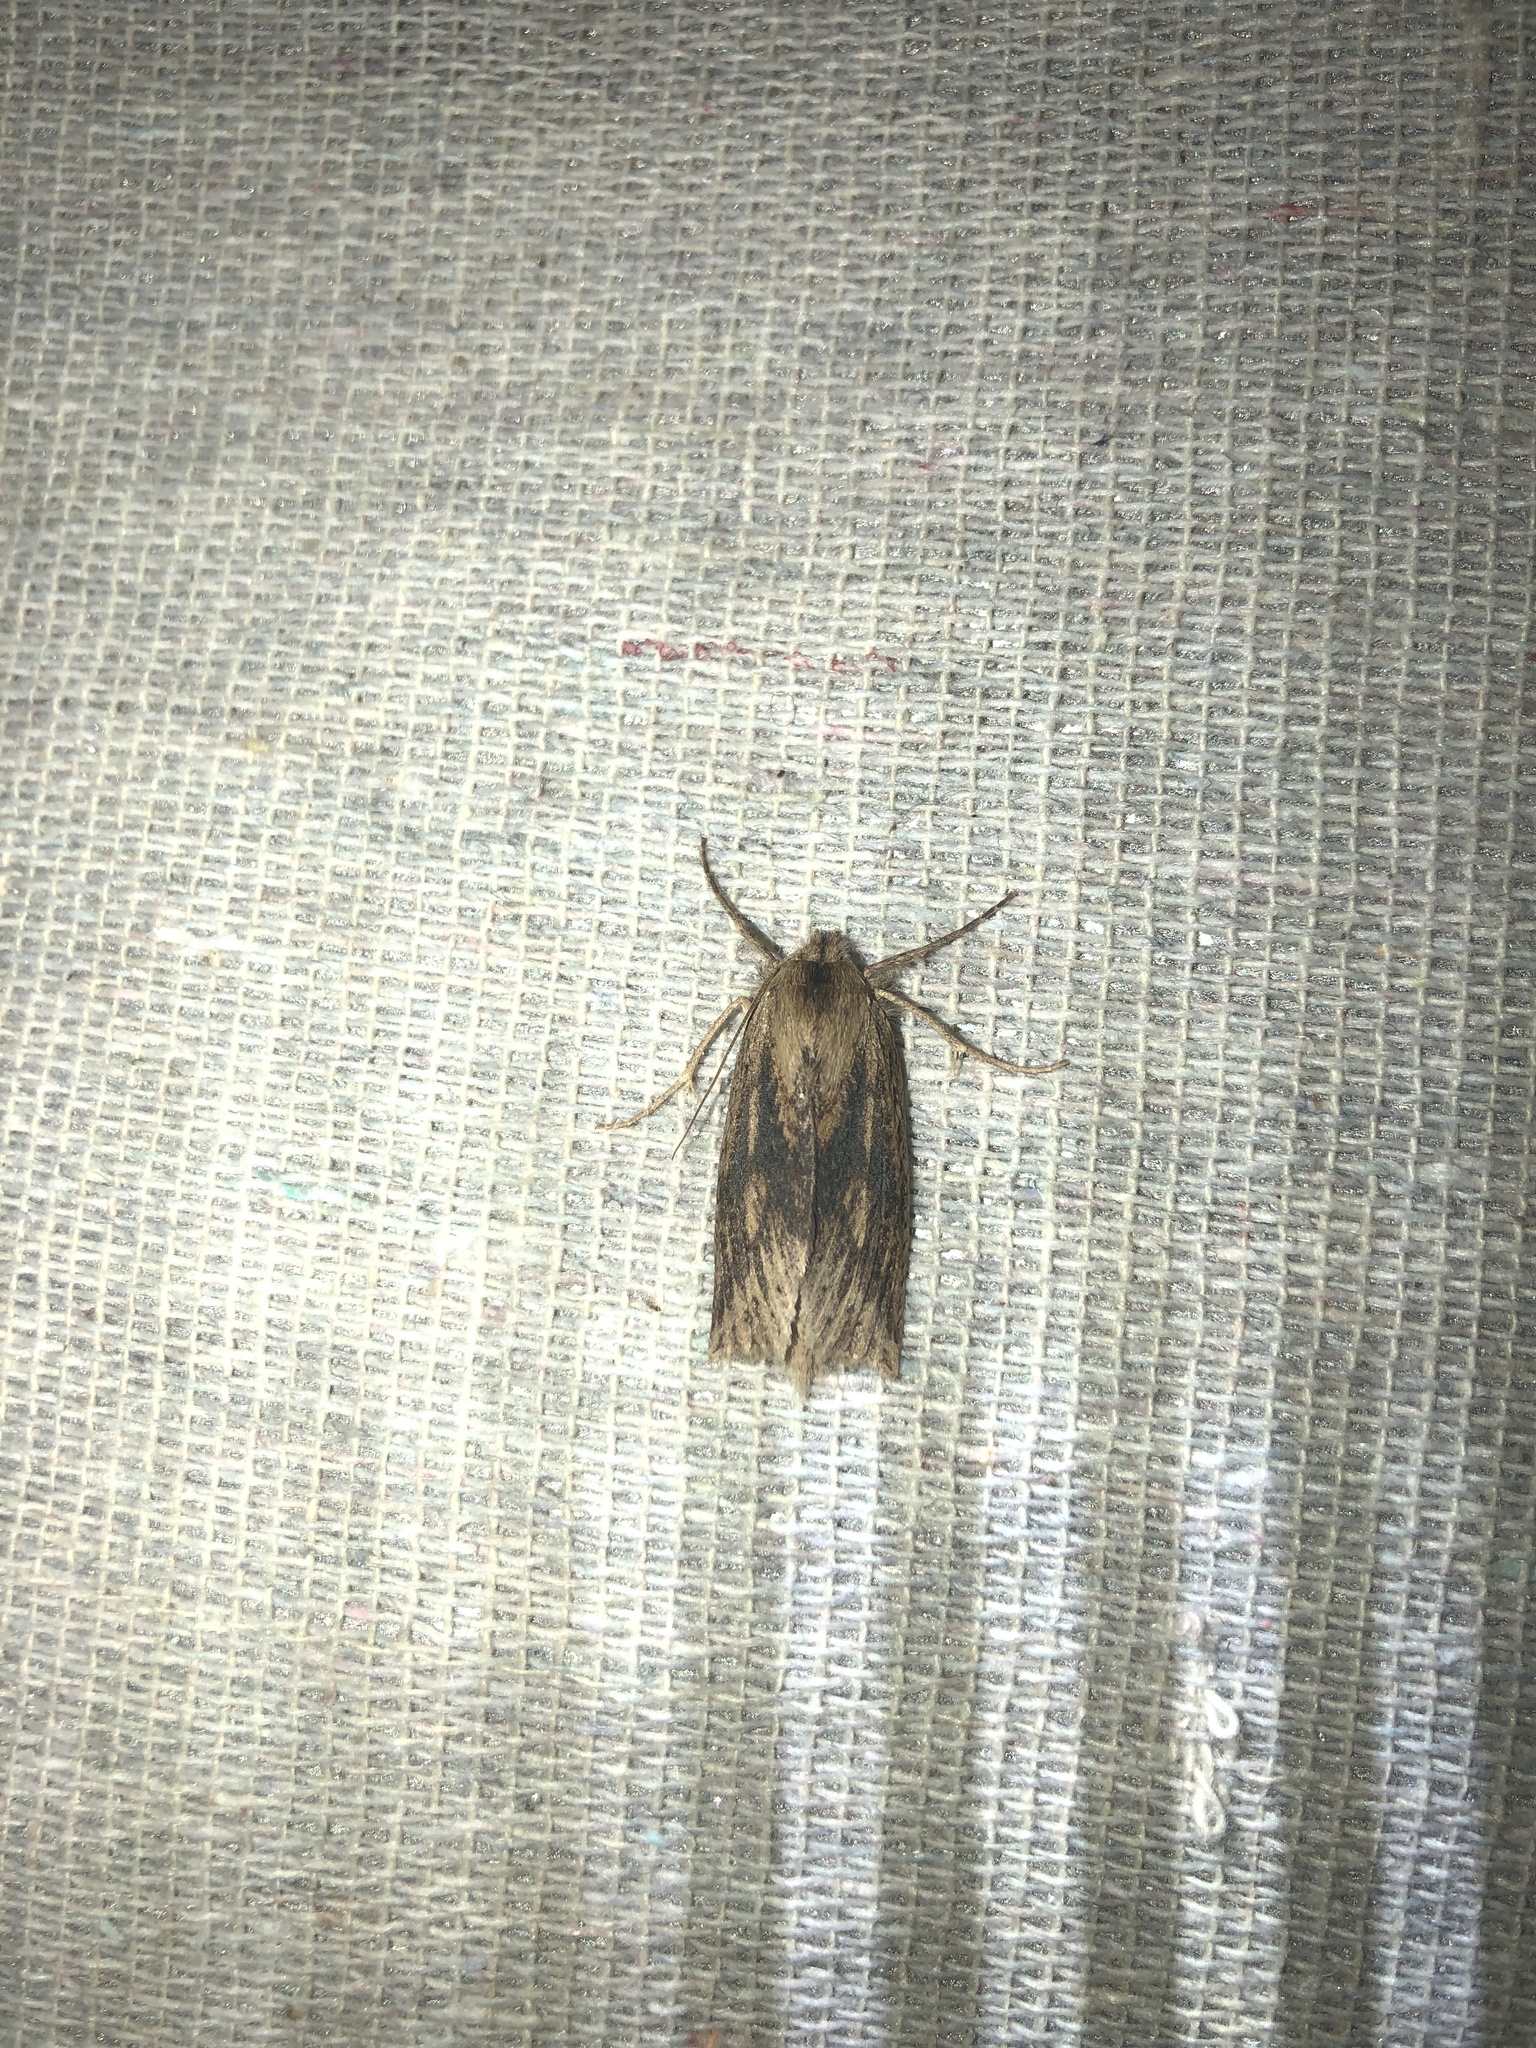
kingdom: Animalia
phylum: Arthropoda
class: Insecta
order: Lepidoptera
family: Geometridae
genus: Declana
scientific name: Declana leptomera
